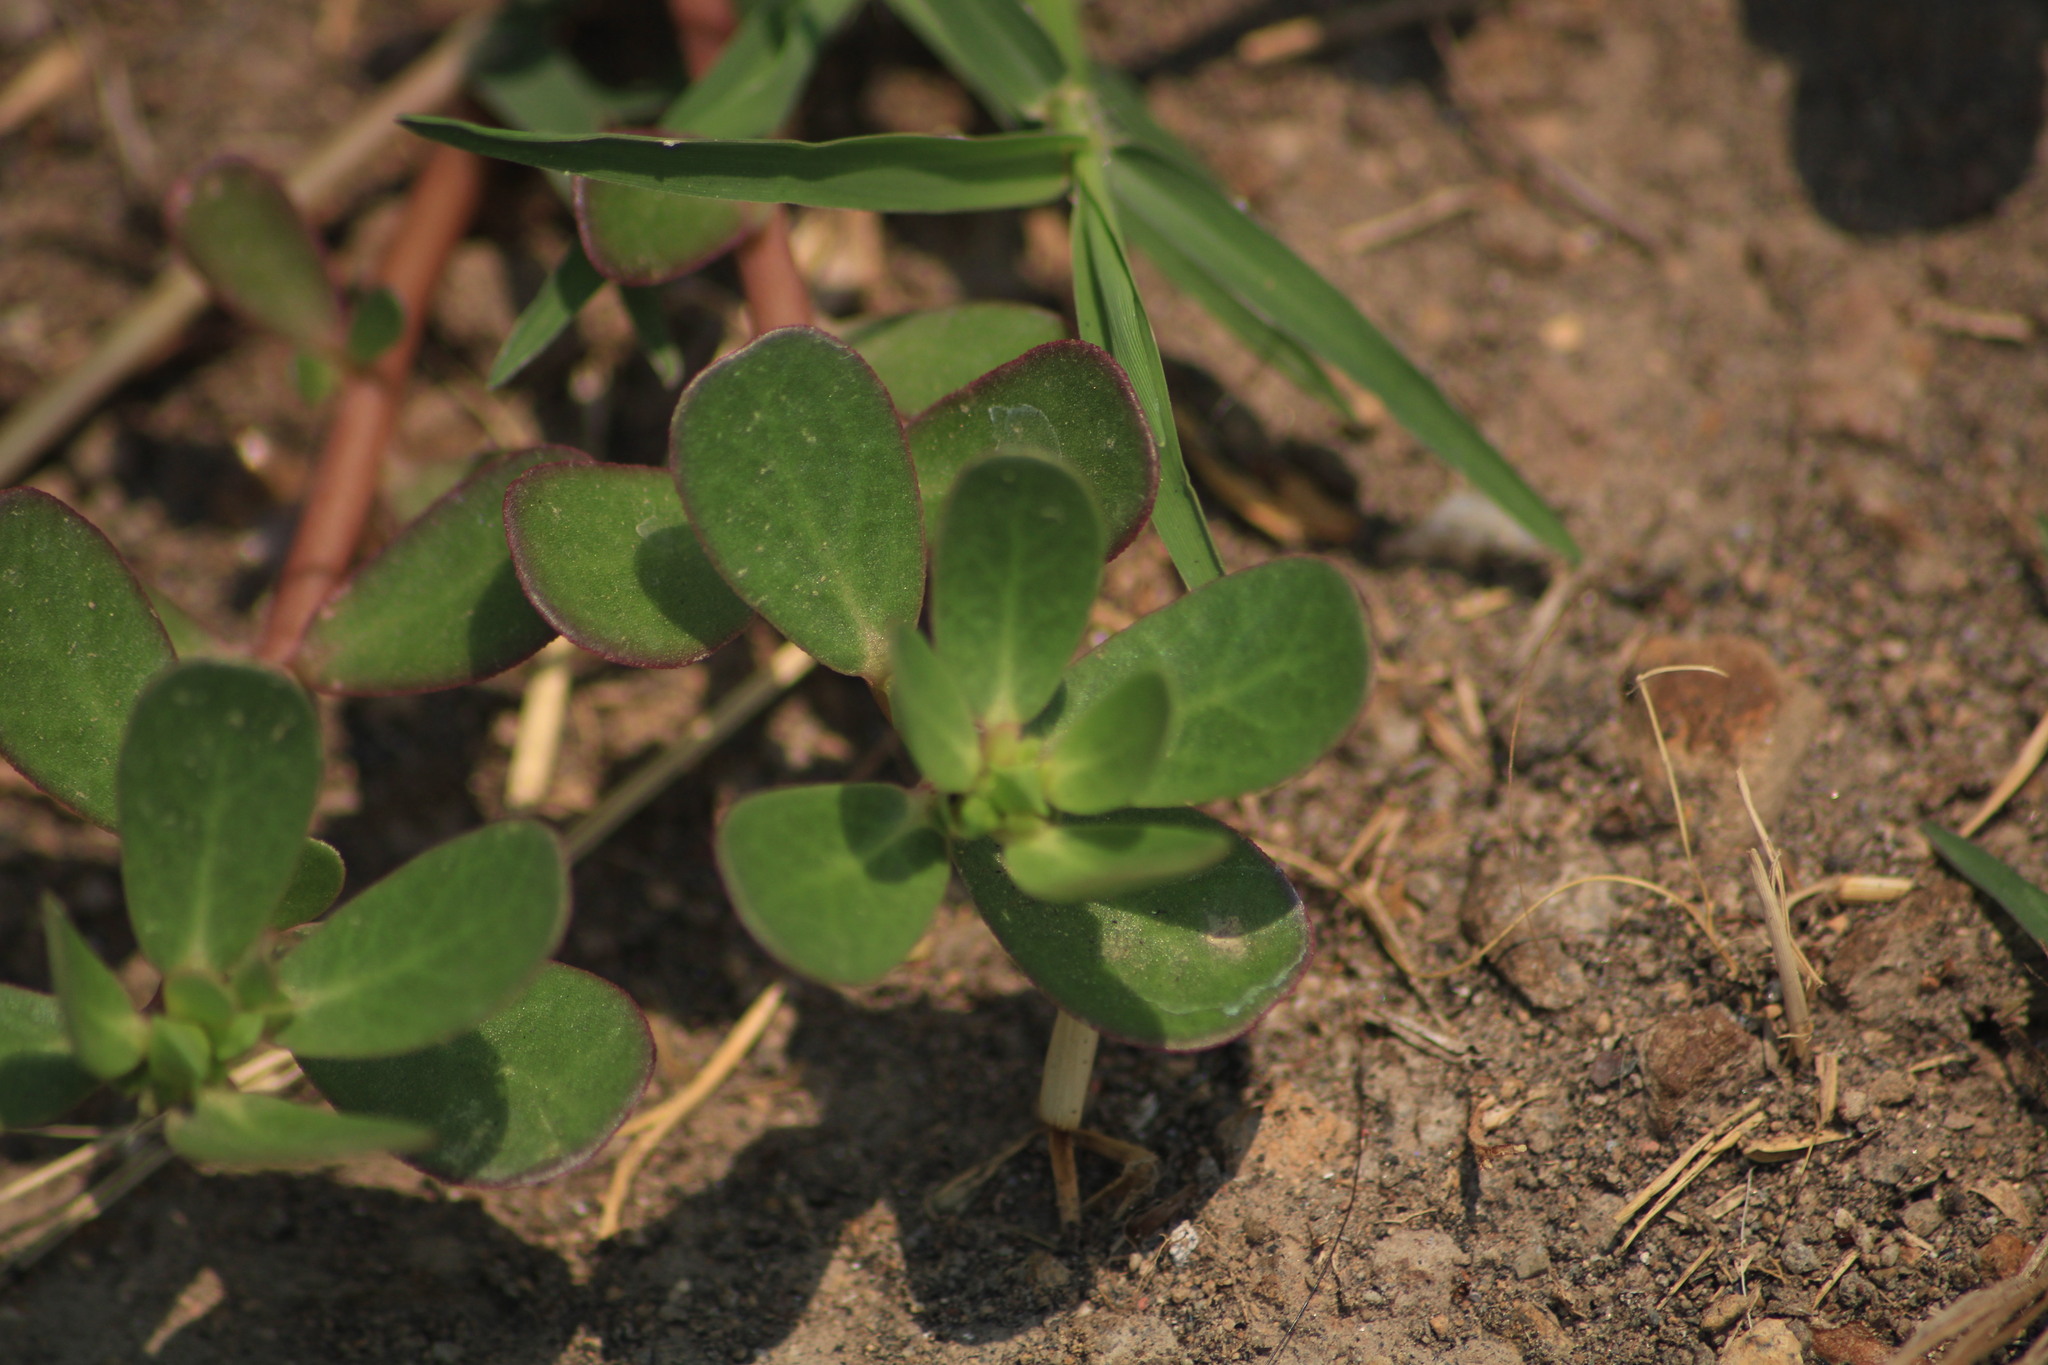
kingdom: Plantae
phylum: Tracheophyta
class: Magnoliopsida
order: Caryophyllales
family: Portulacaceae
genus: Portulaca
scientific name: Portulaca oleracea
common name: Common purslane
